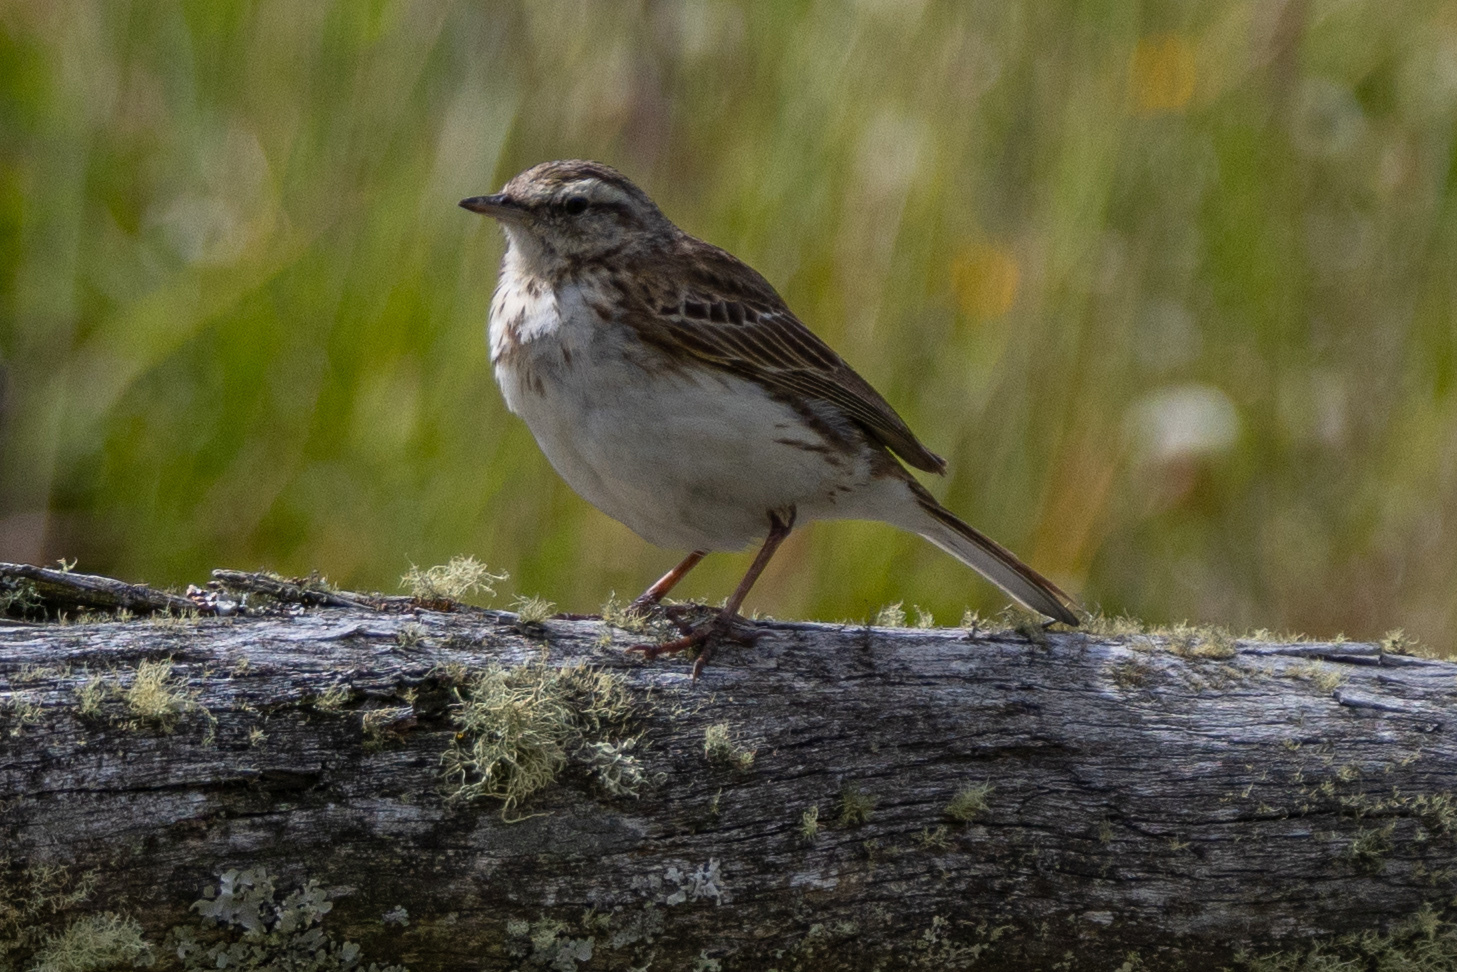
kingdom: Animalia
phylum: Chordata
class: Aves
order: Passeriformes
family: Motacillidae
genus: Anthus
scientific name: Anthus novaeseelandiae
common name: New zealand pipit
